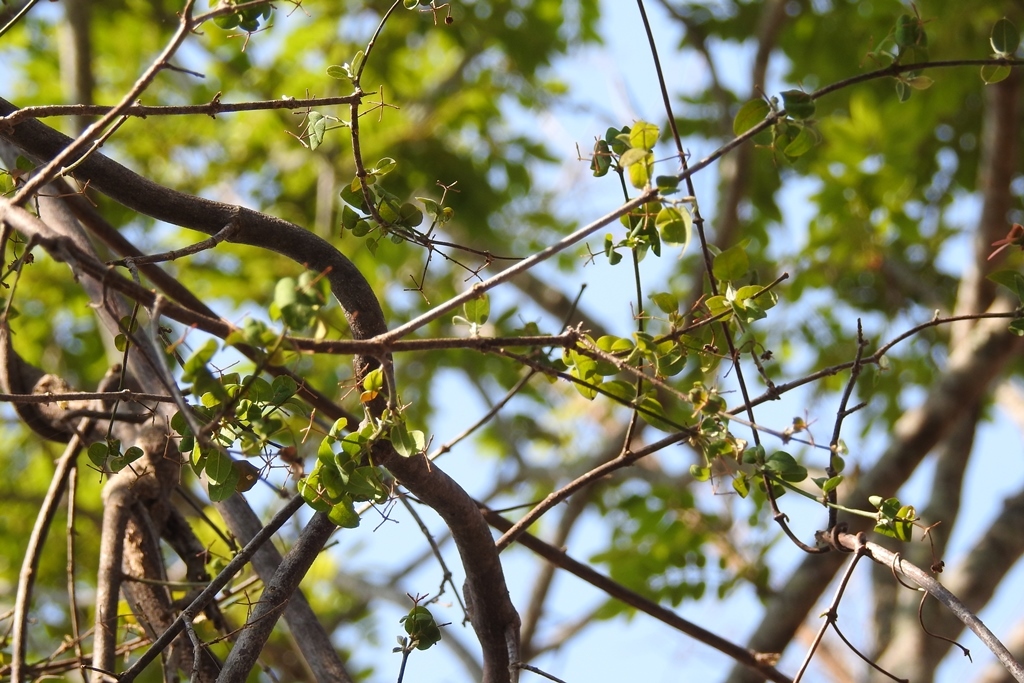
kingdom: Plantae
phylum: Tracheophyta
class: Magnoliopsida
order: Malpighiales
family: Malpighiaceae
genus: Stigmaphyllon
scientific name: Stigmaphyllon selerianum
